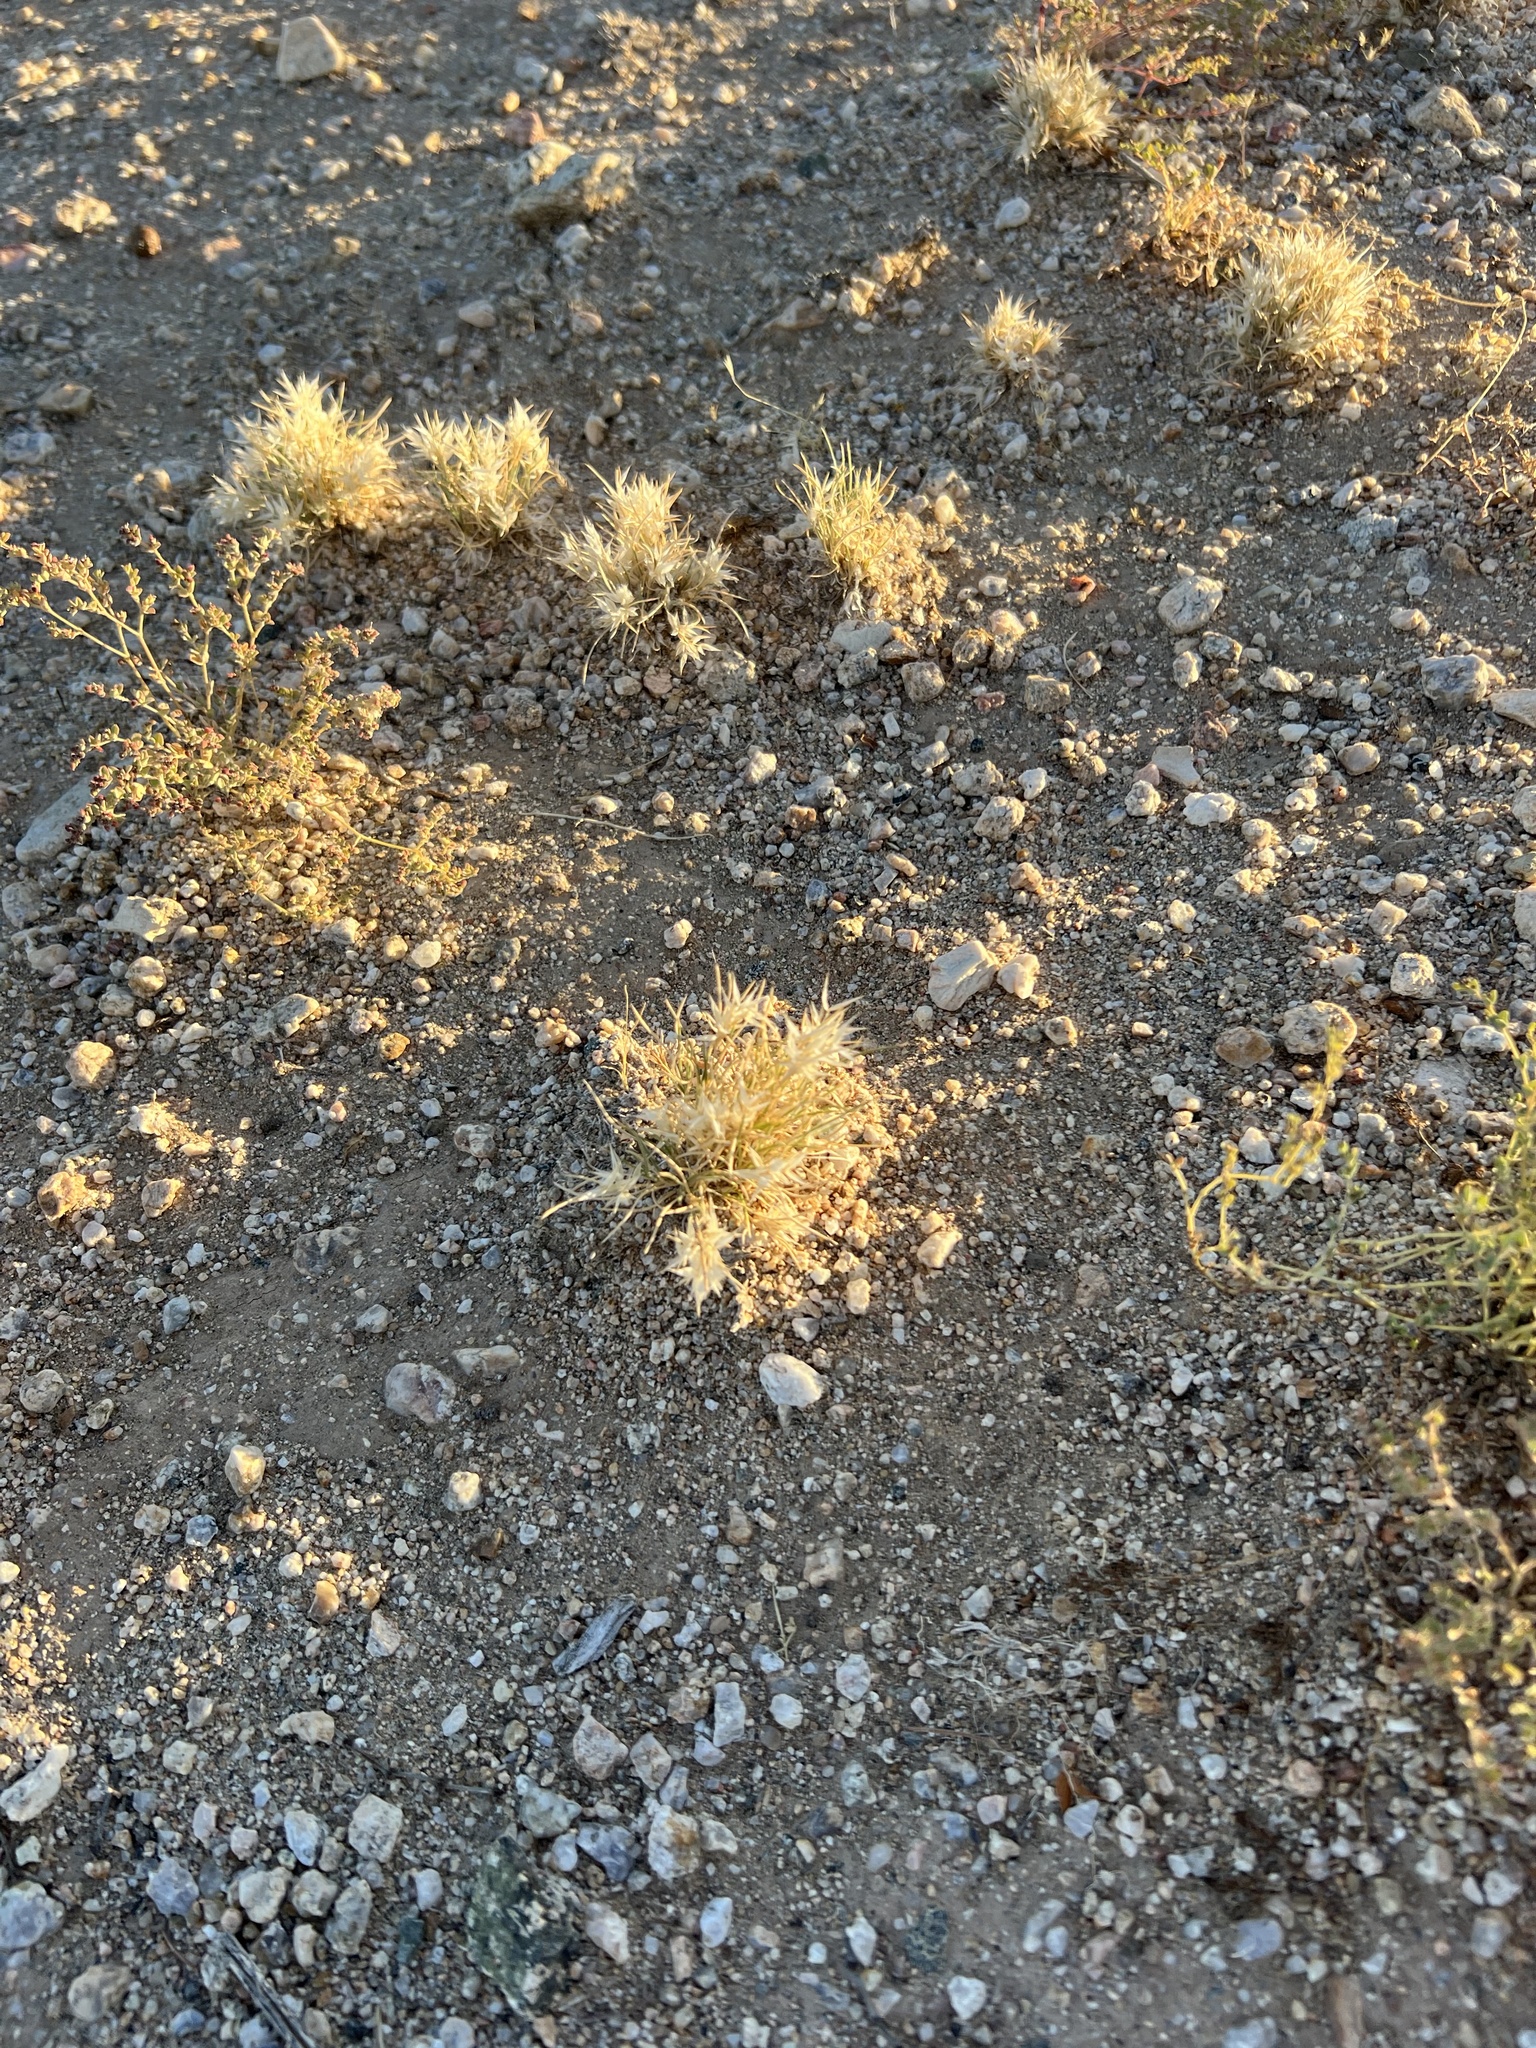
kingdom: Plantae
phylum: Tracheophyta
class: Liliopsida
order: Poales
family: Poaceae
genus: Dasyochloa
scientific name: Dasyochloa pulchella
